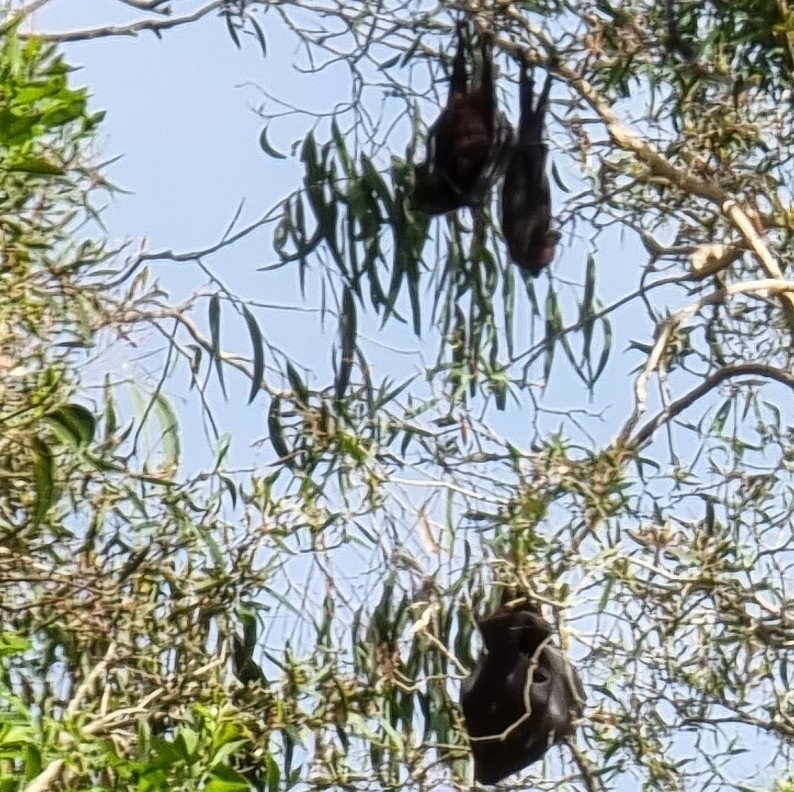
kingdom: Animalia
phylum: Chordata
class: Mammalia
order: Chiroptera
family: Pteropodidae
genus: Pteropus
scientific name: Pteropus alecto
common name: Black flying fox
